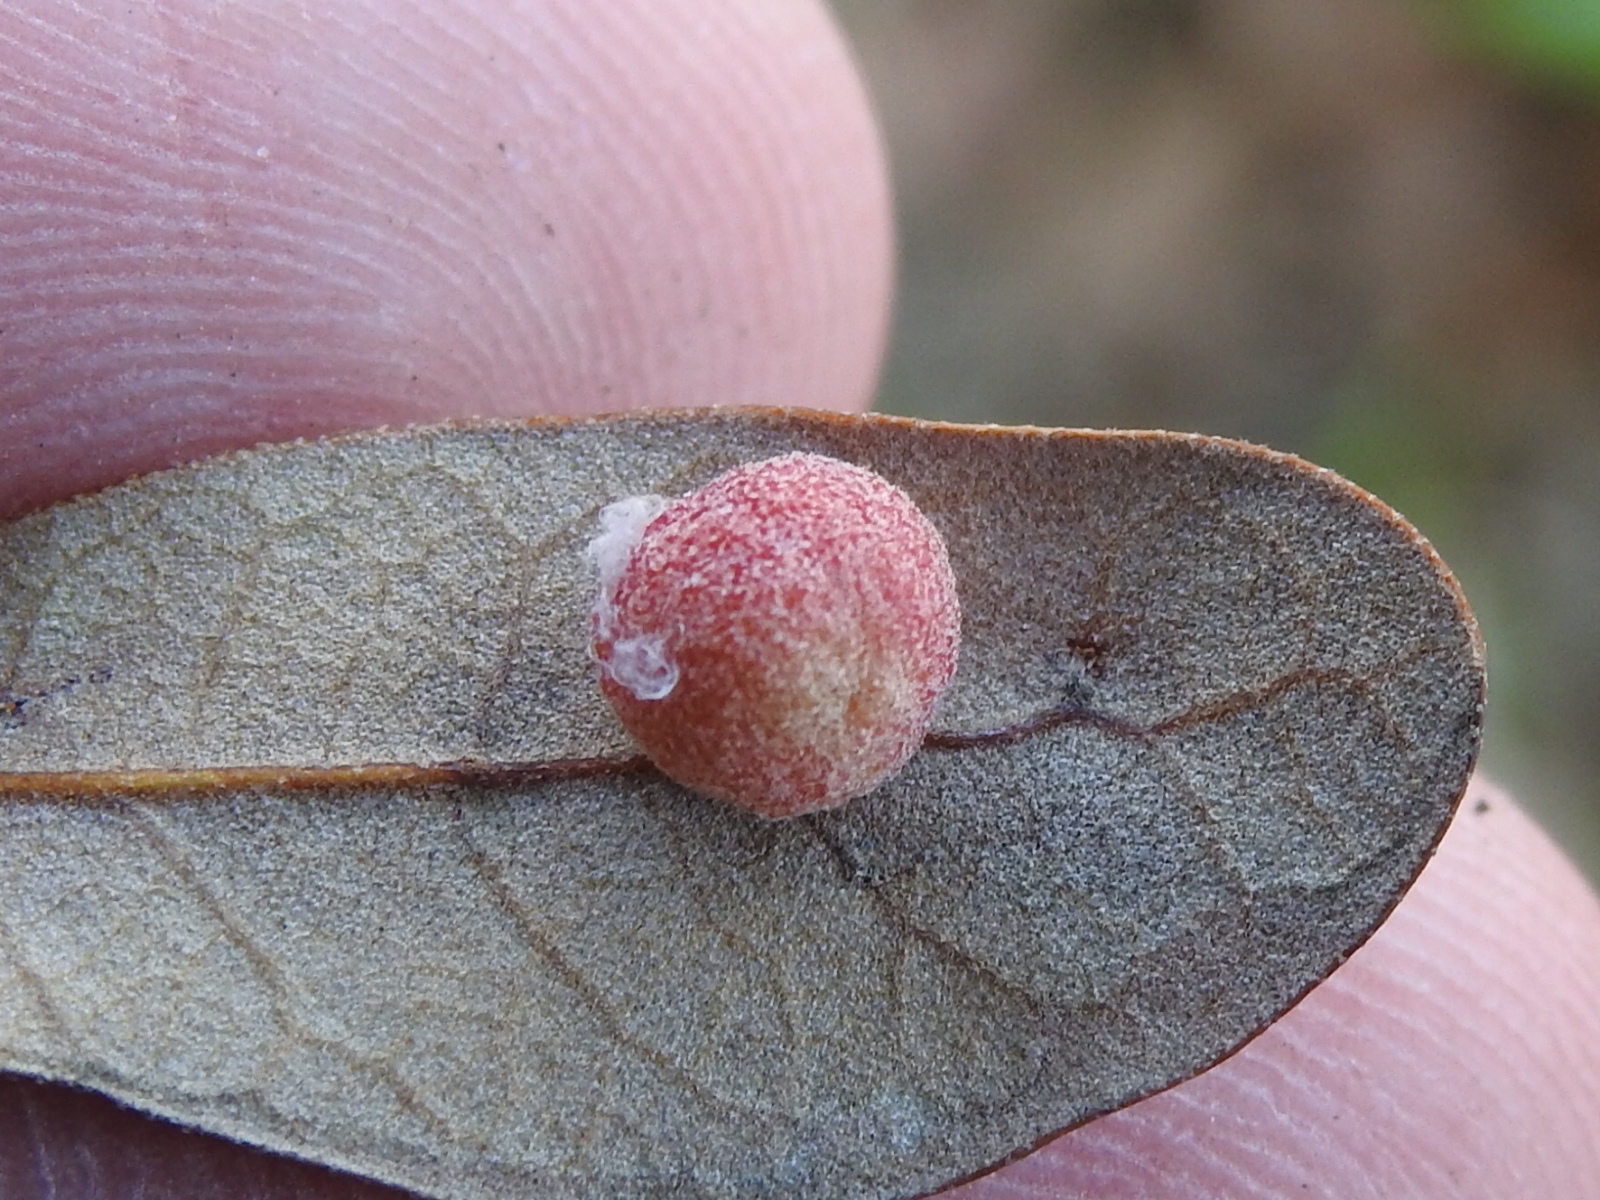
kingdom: Animalia
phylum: Arthropoda
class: Insecta
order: Hymenoptera
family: Cynipidae
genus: Belonocnema
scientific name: Belonocnema kinseyi
